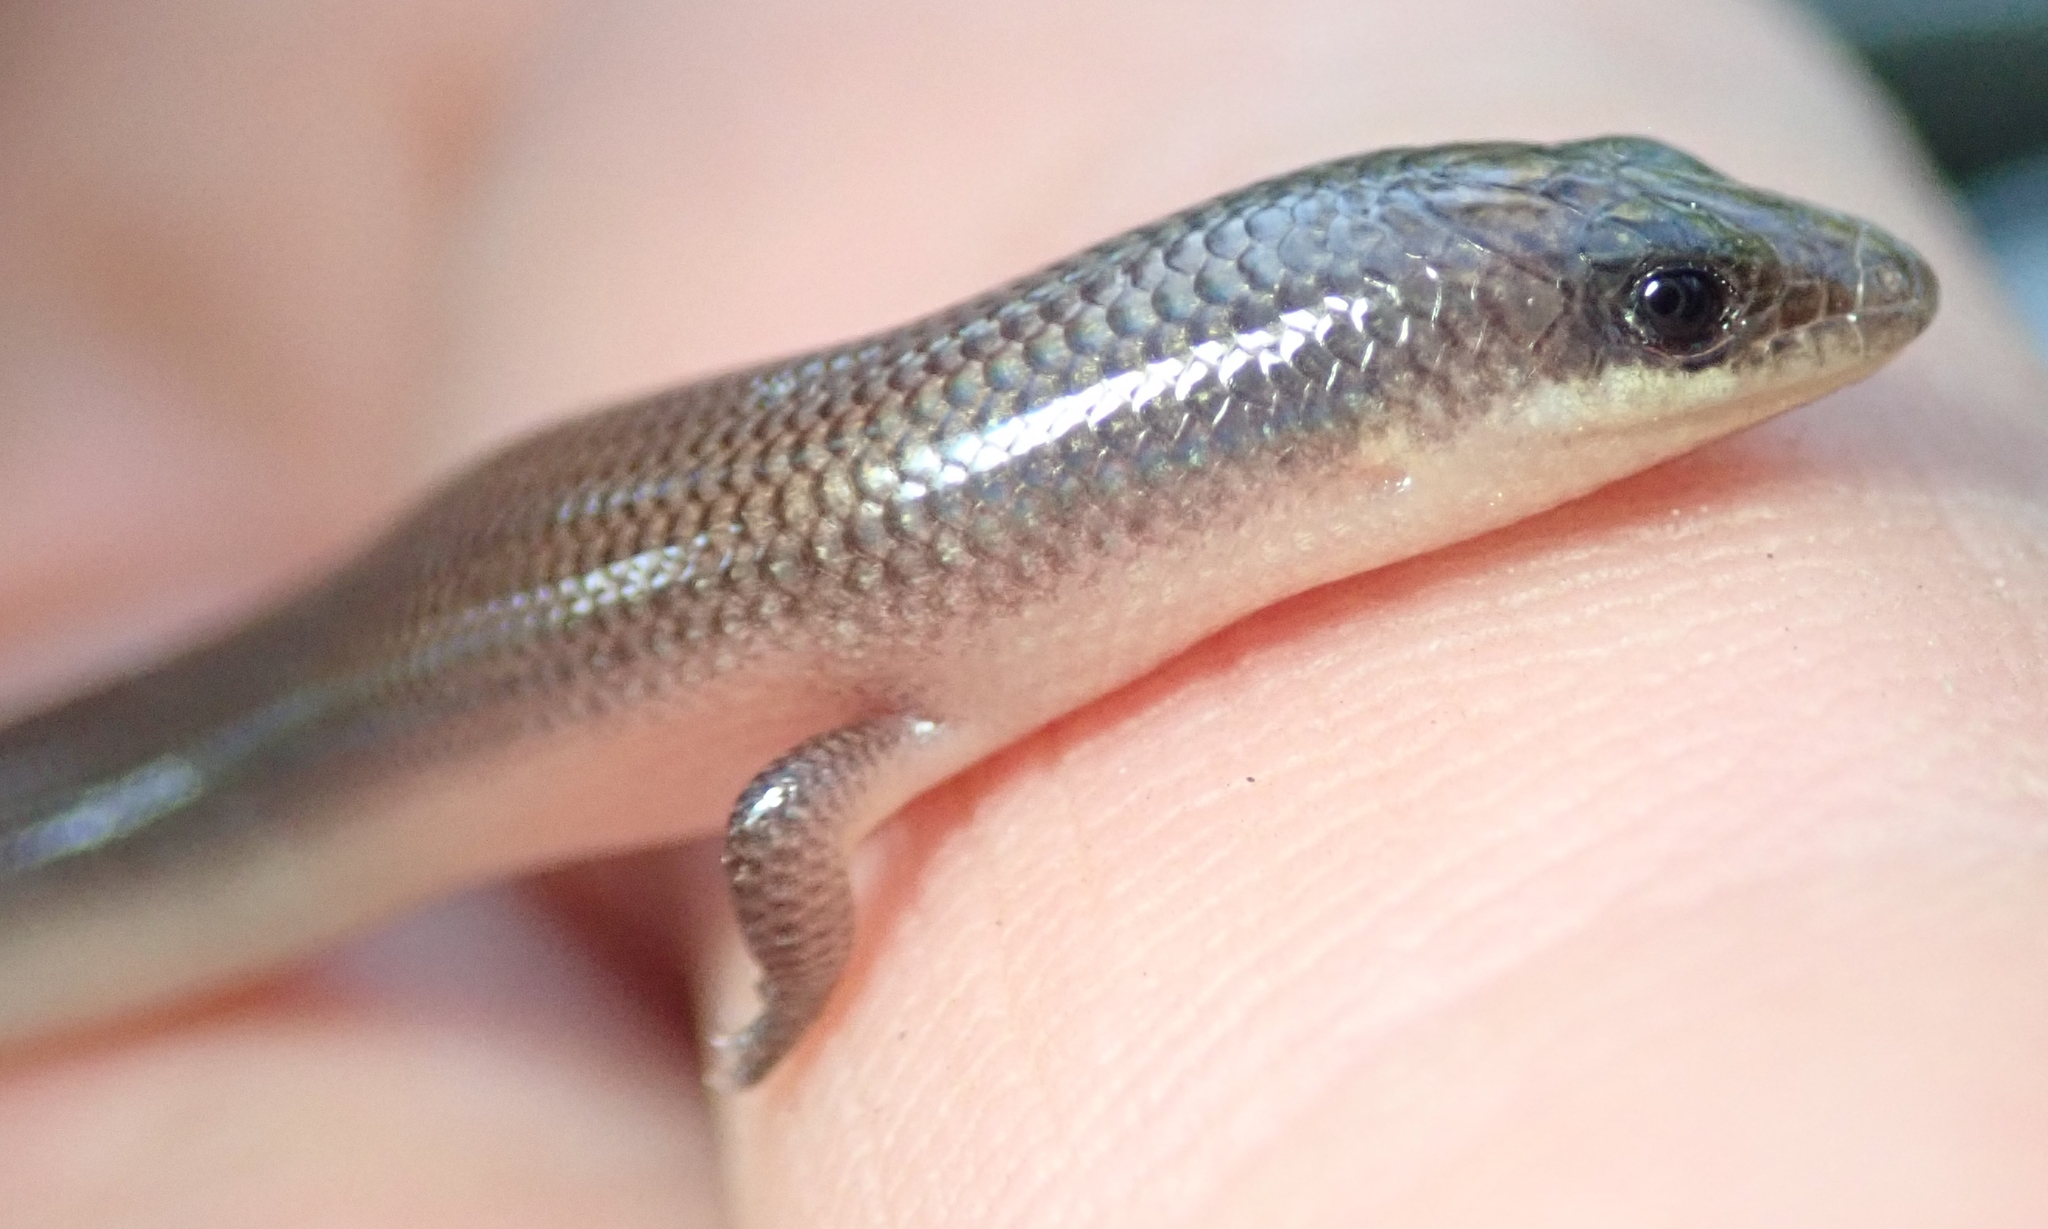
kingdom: Animalia
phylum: Chordata
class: Squamata
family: Scincidae
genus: Mochlus
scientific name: Mochlus sundevallii
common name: Peters' eyelid skink
